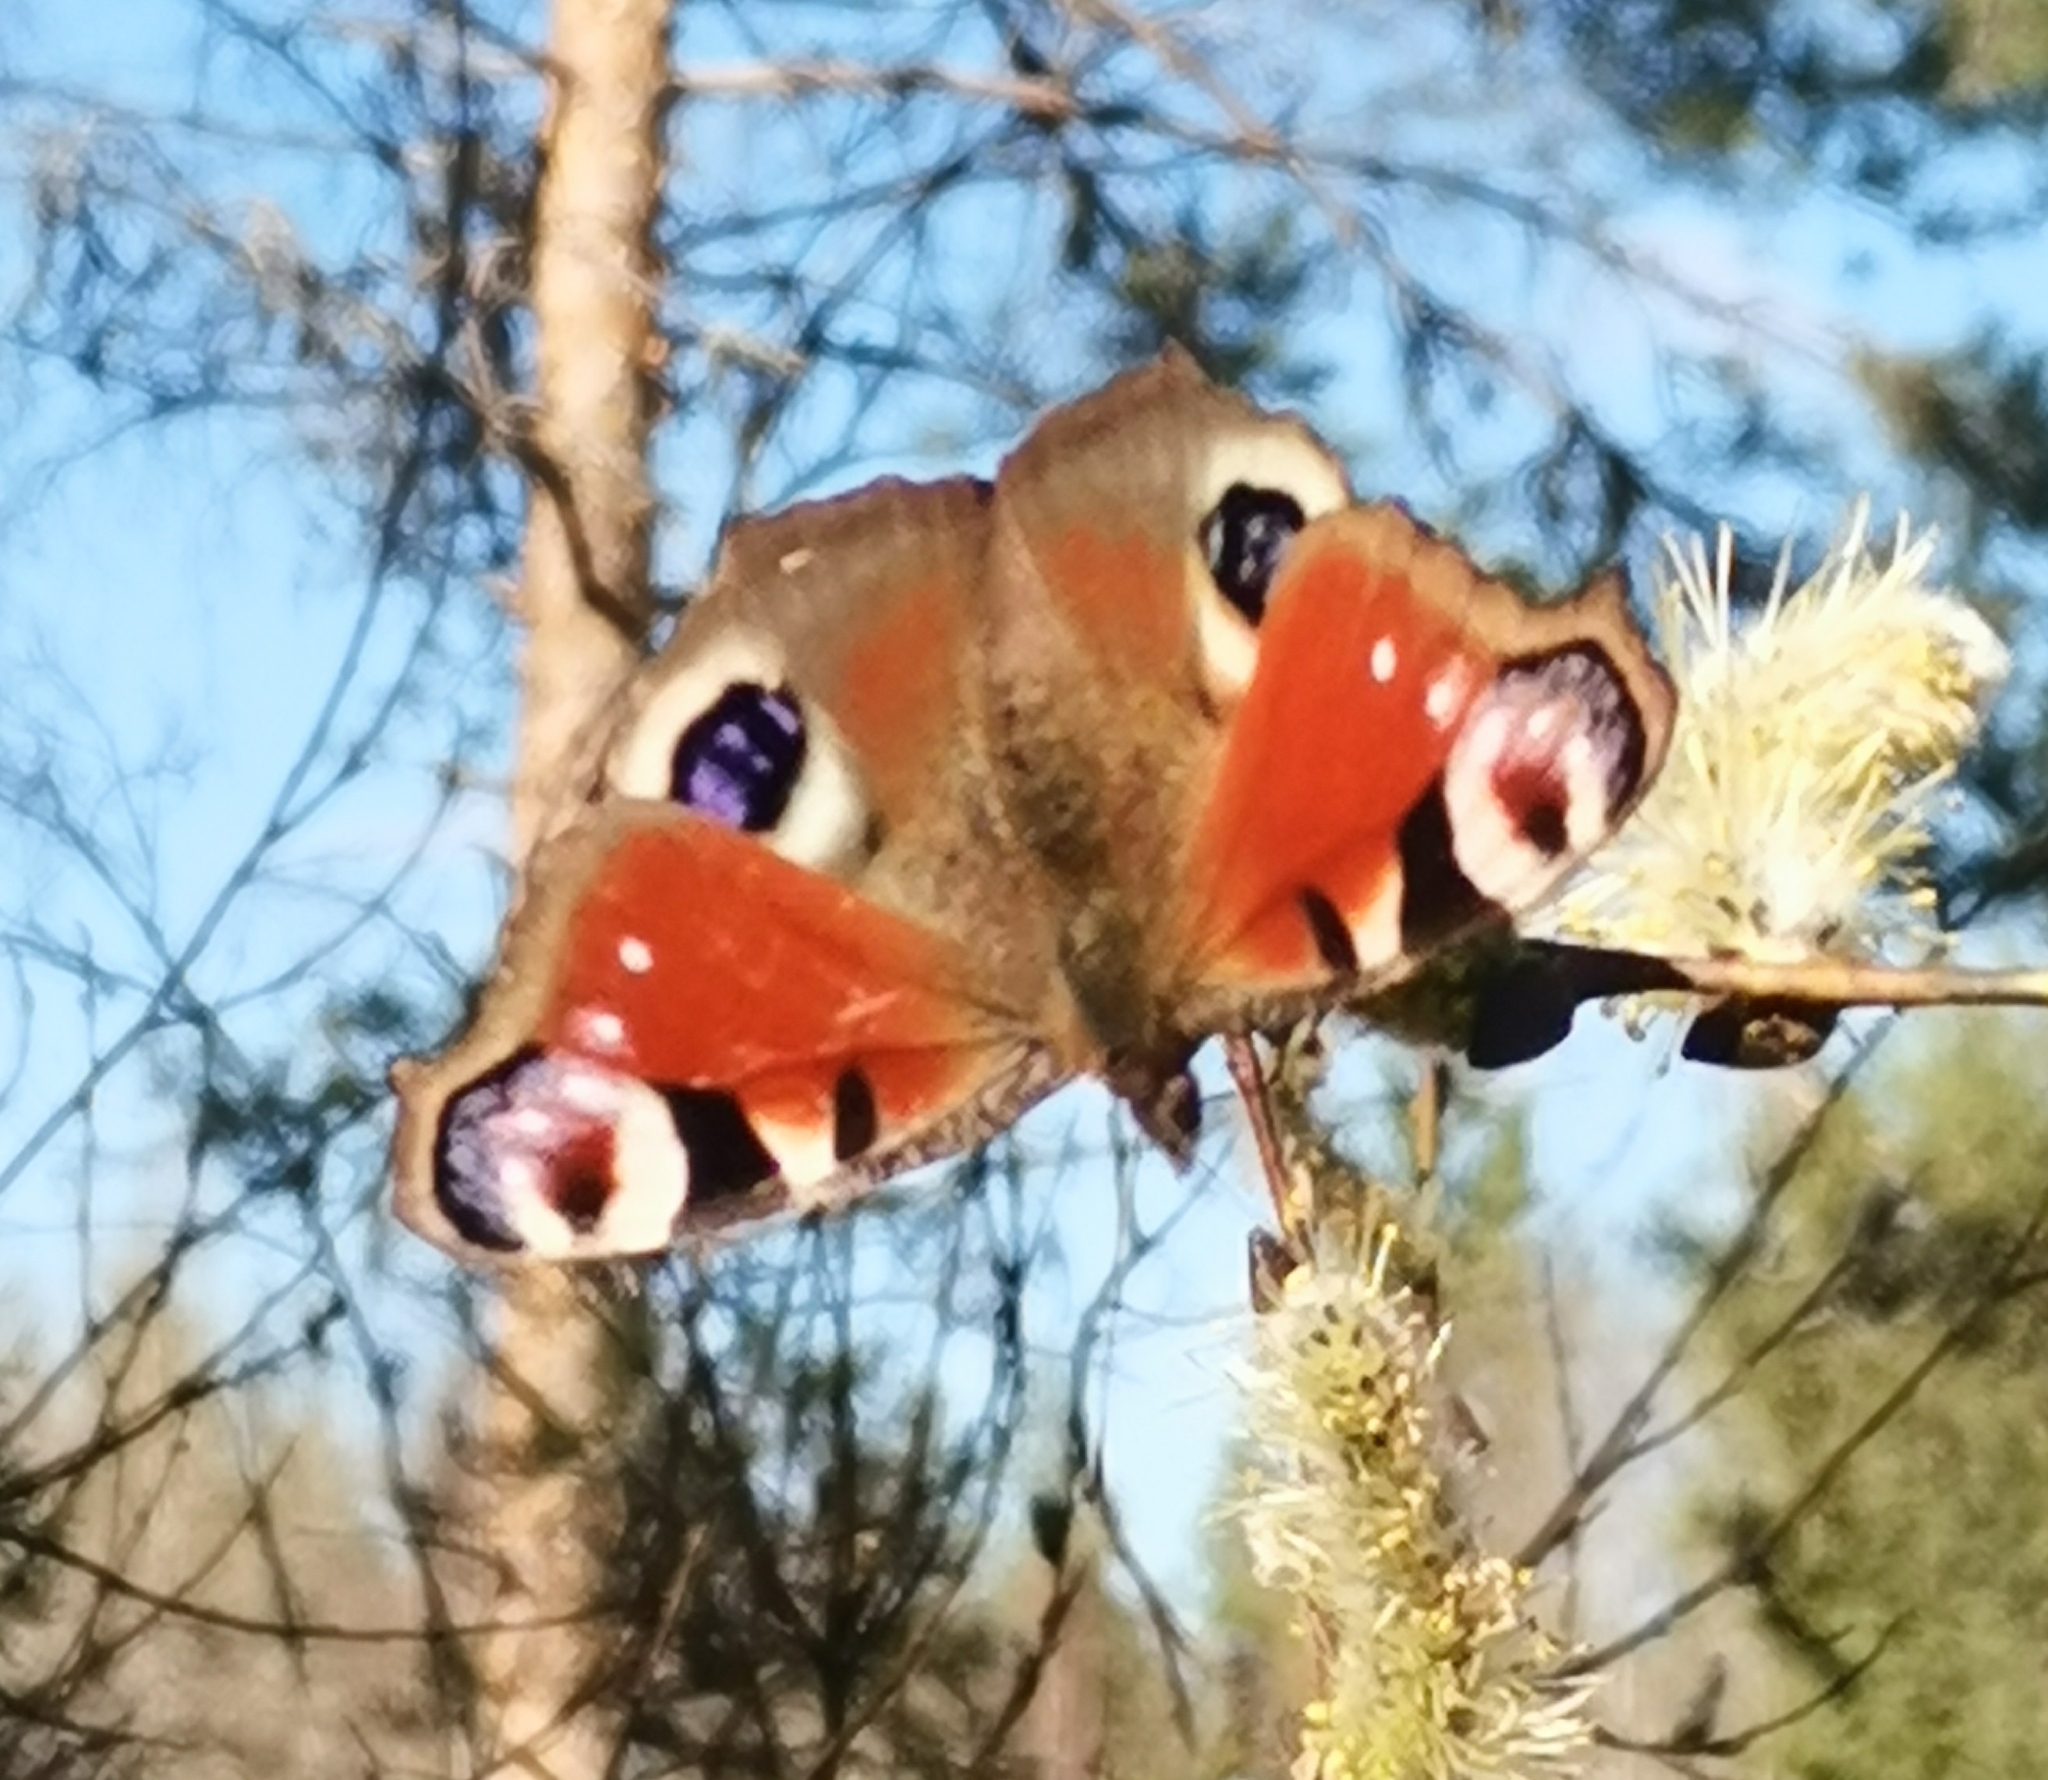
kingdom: Animalia
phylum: Arthropoda
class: Insecta
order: Lepidoptera
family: Nymphalidae
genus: Aglais
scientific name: Aglais io
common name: Peacock
